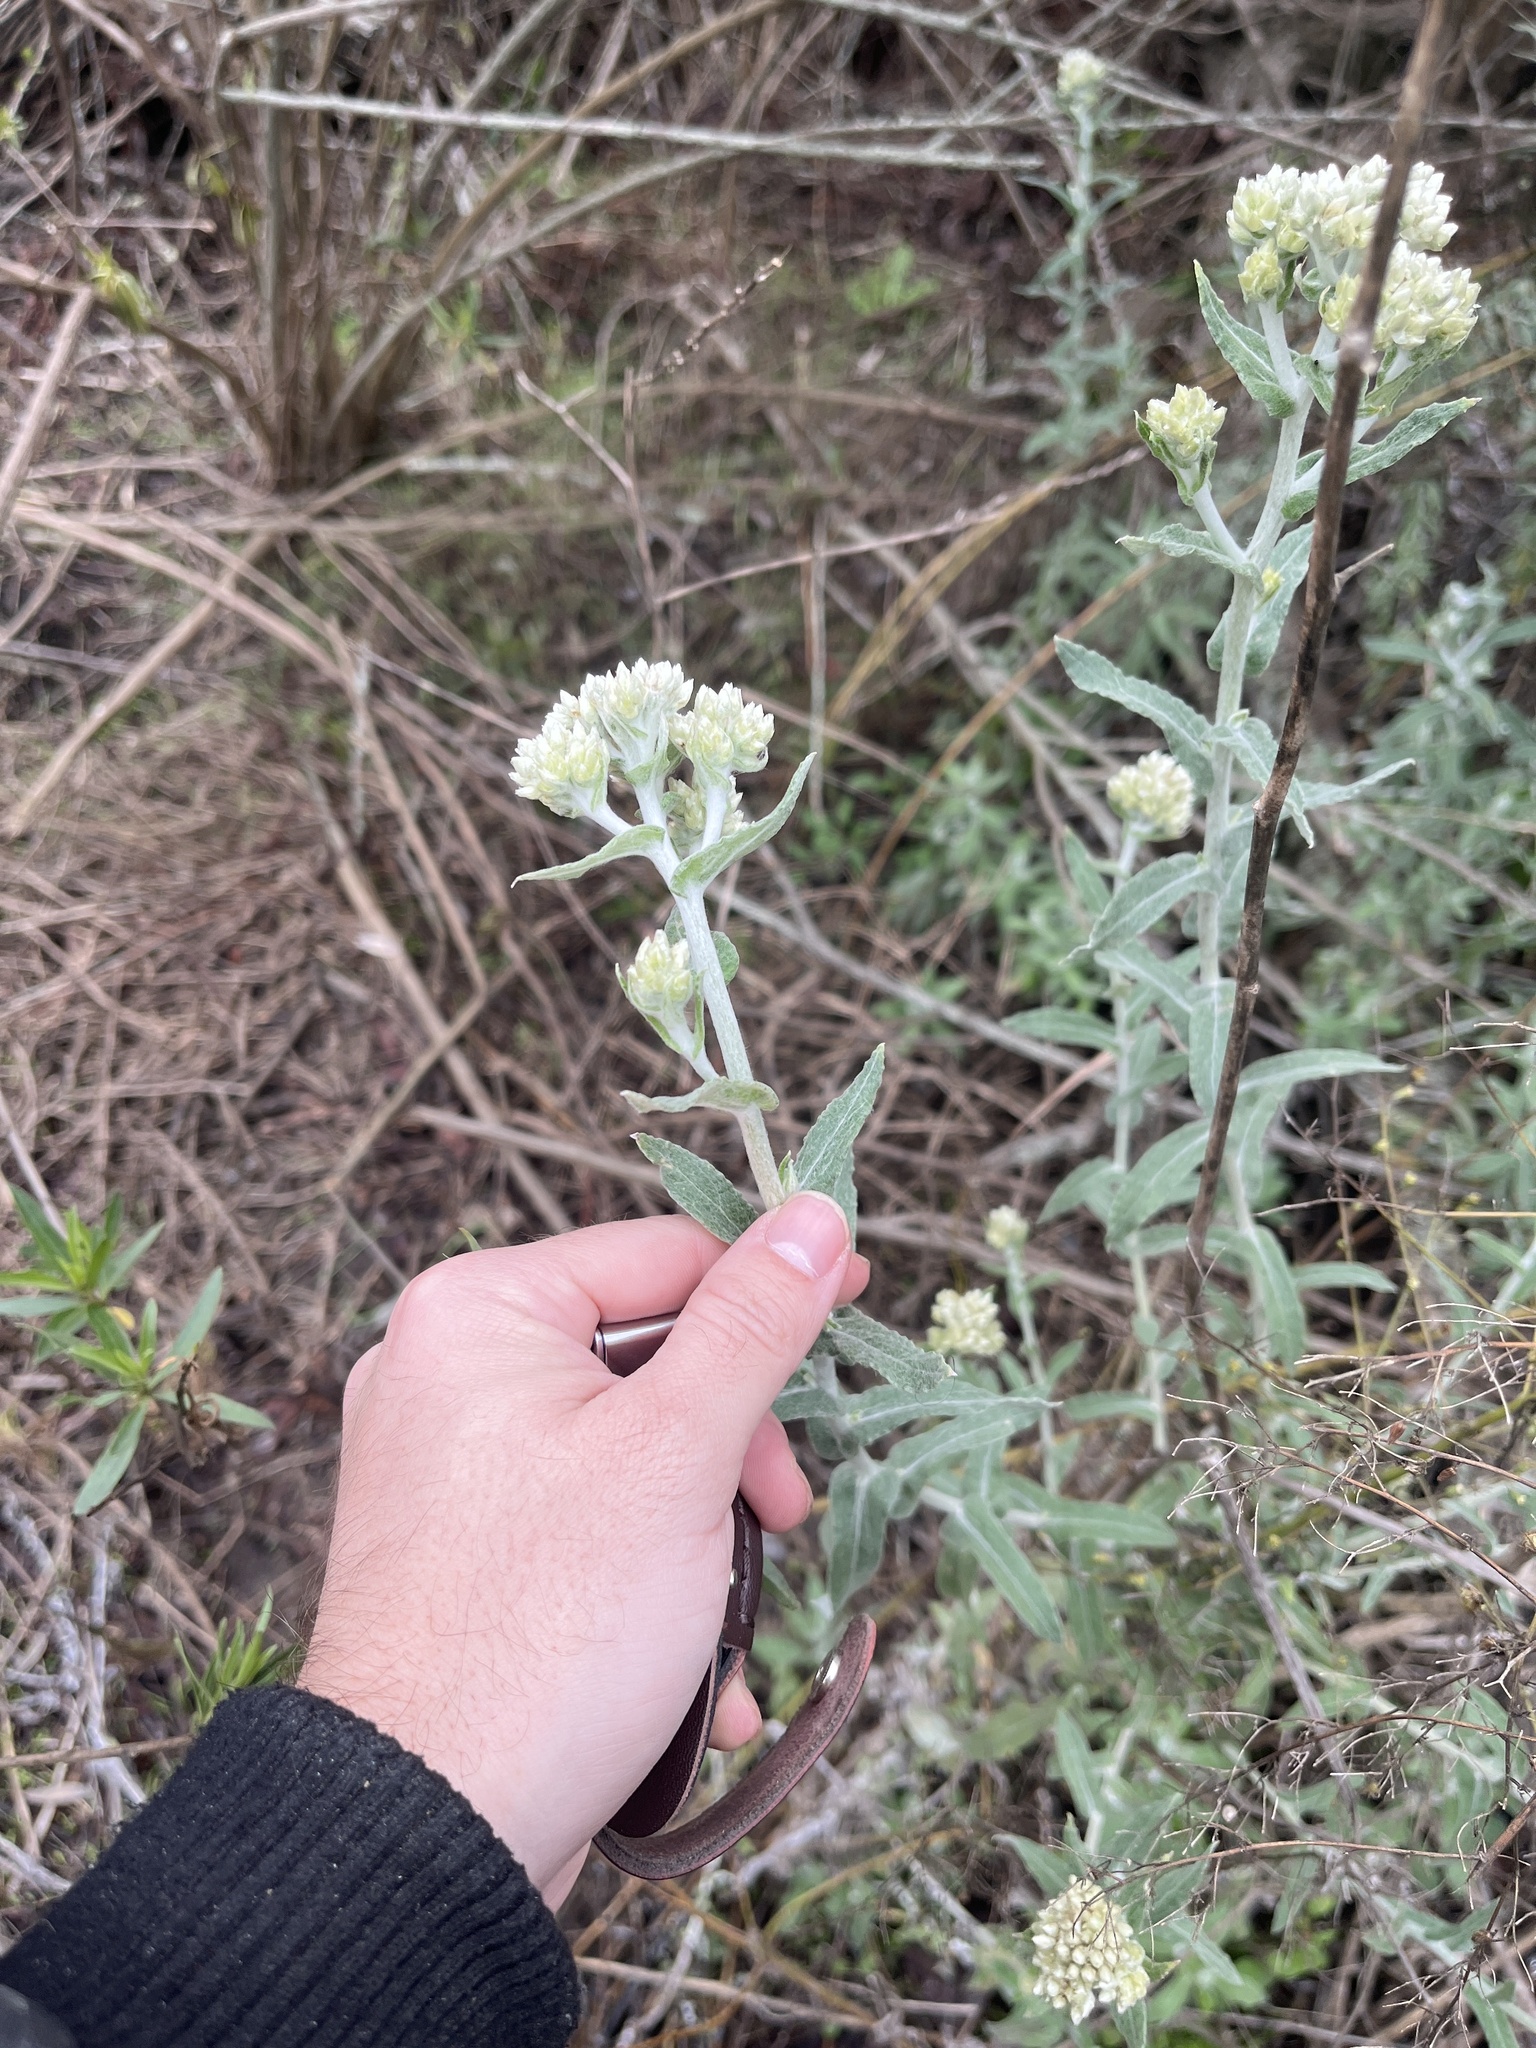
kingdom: Plantae
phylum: Tracheophyta
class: Magnoliopsida
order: Asterales
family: Asteraceae
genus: Pseudognaphalium
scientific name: Pseudognaphalium biolettii
